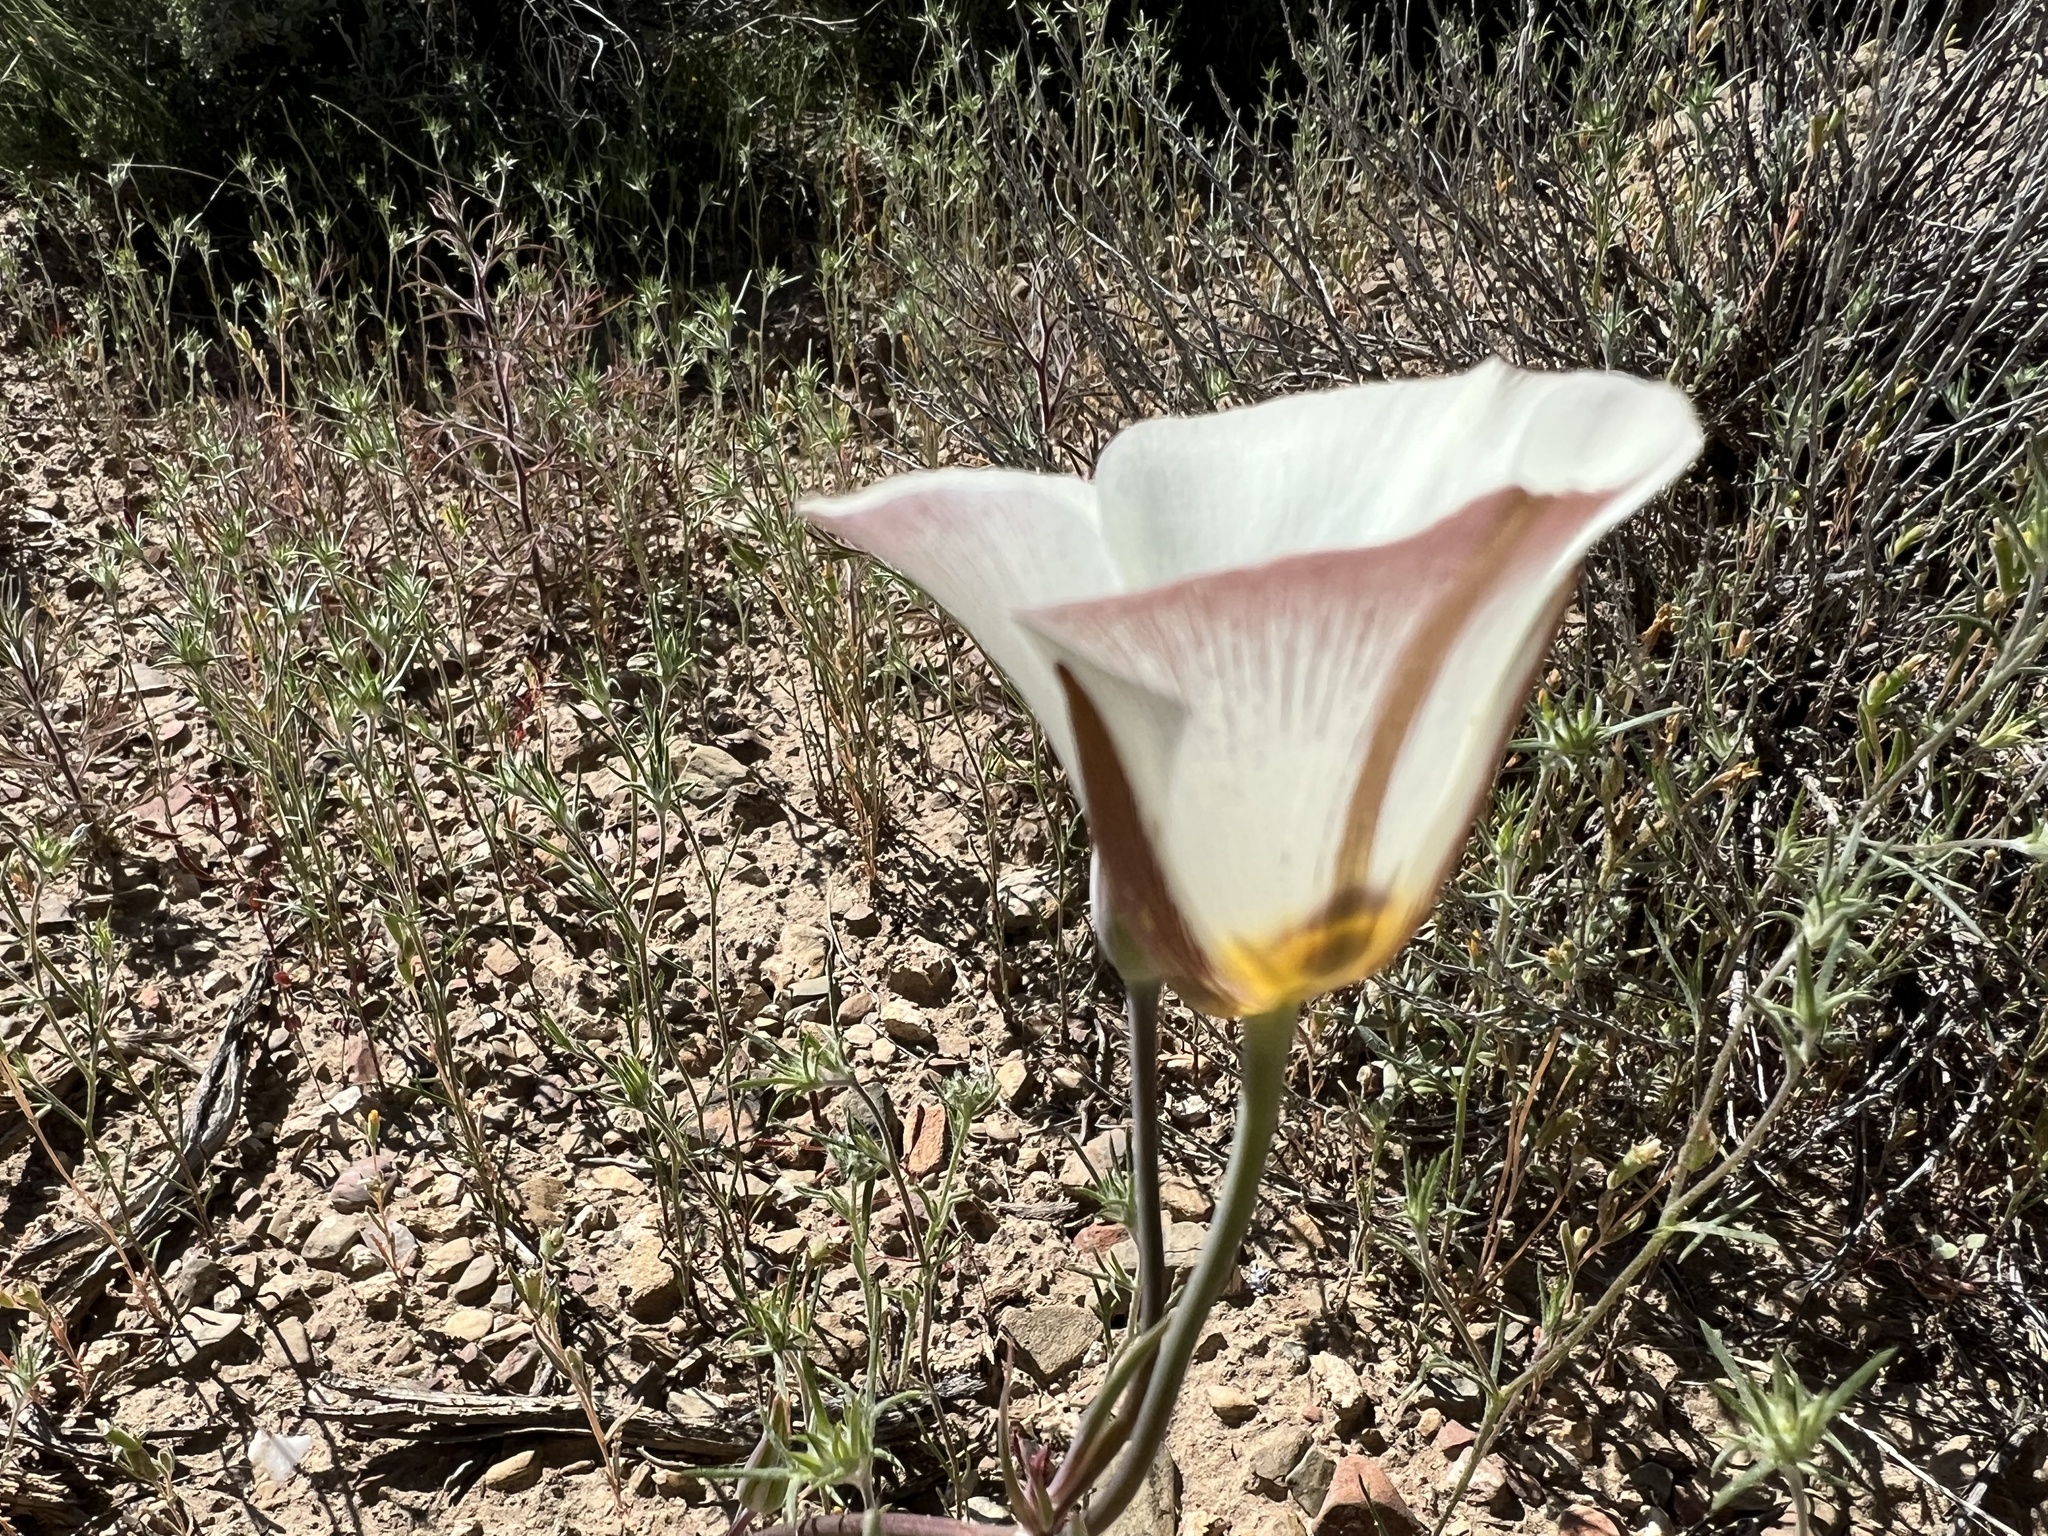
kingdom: Plantae
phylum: Tracheophyta
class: Liliopsida
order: Liliales
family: Liliaceae
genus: Calochortus
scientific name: Calochortus bruneaunis
